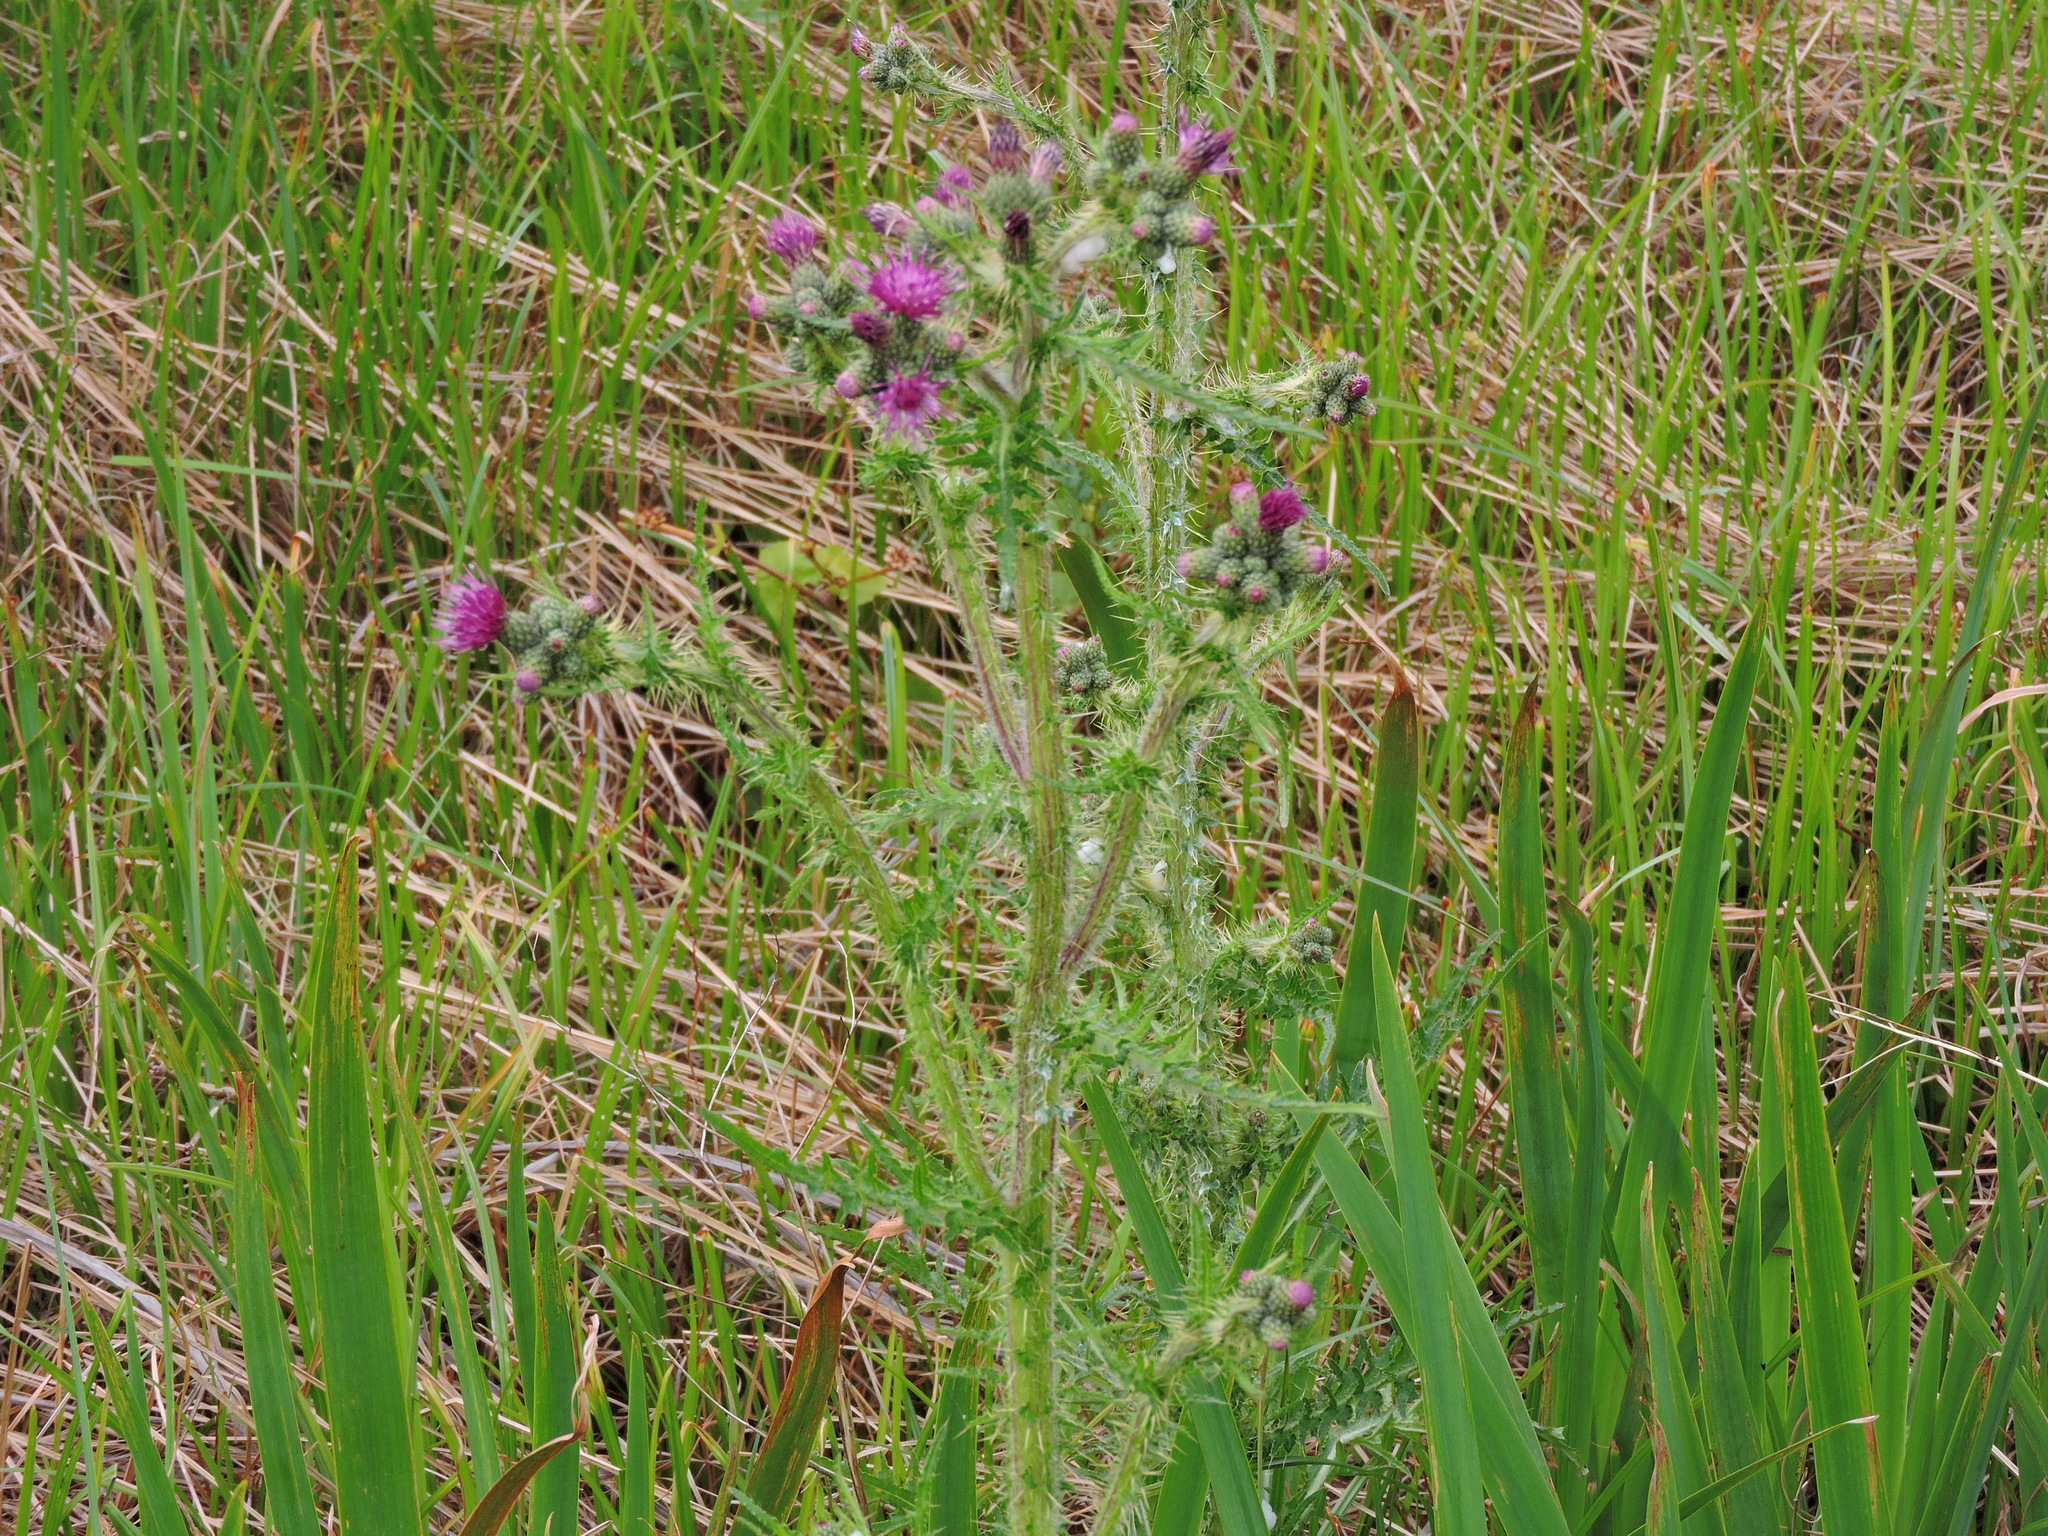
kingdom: Plantae
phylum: Tracheophyta
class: Magnoliopsida
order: Asterales
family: Asteraceae
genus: Cirsium
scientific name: Cirsium palustre
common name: Marsh thistle
